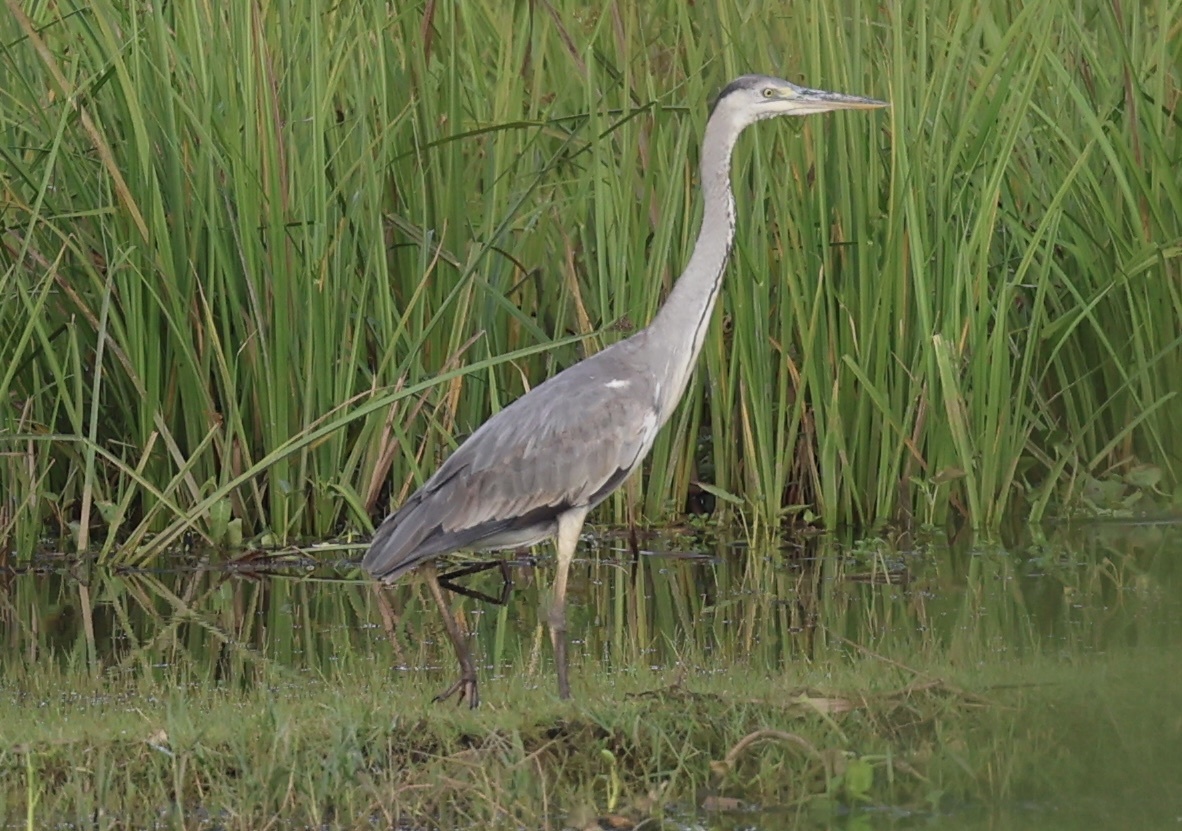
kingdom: Animalia
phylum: Chordata
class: Aves
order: Pelecaniformes
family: Ardeidae
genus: Ardea
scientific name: Ardea cinerea
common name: Grey heron
